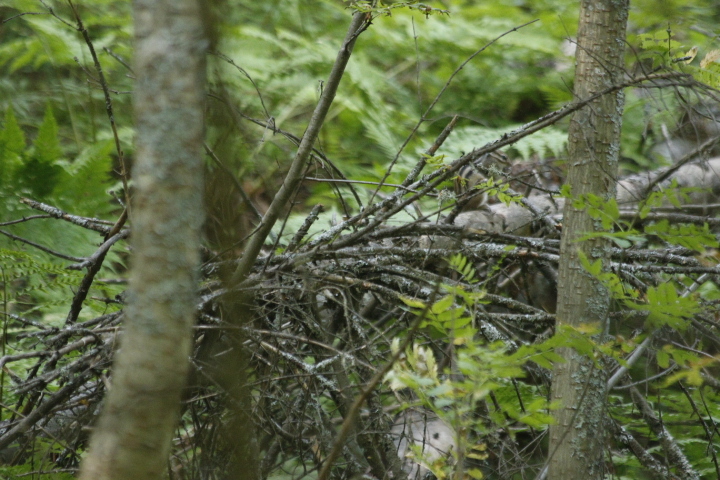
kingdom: Animalia
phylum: Chordata
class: Mammalia
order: Rodentia
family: Sciuridae
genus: Tamias
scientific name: Tamias sibiricus
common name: Siberian chipmunk
